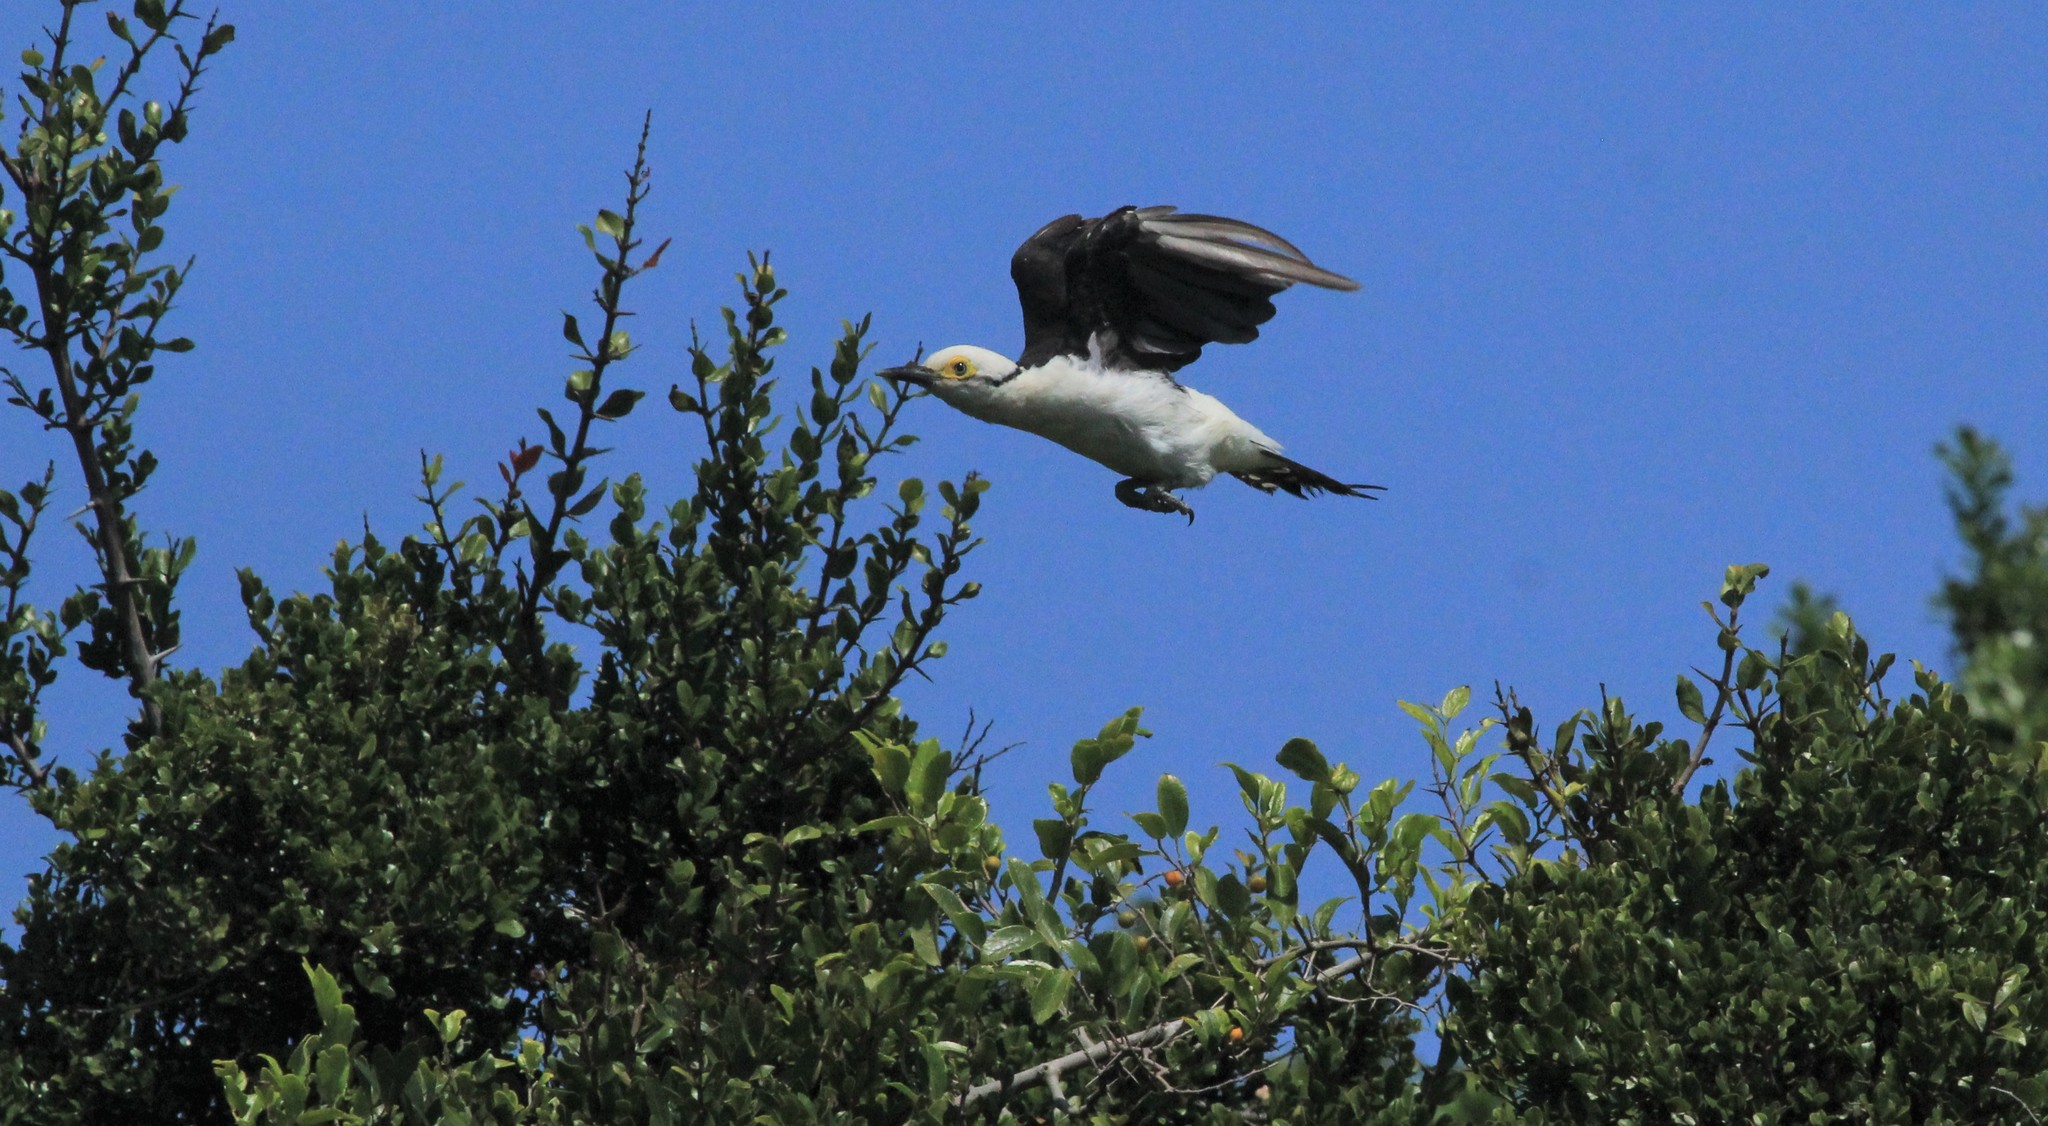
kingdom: Animalia
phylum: Chordata
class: Aves
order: Piciformes
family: Picidae
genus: Melanerpes
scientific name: Melanerpes candidus
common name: White woodpecker
